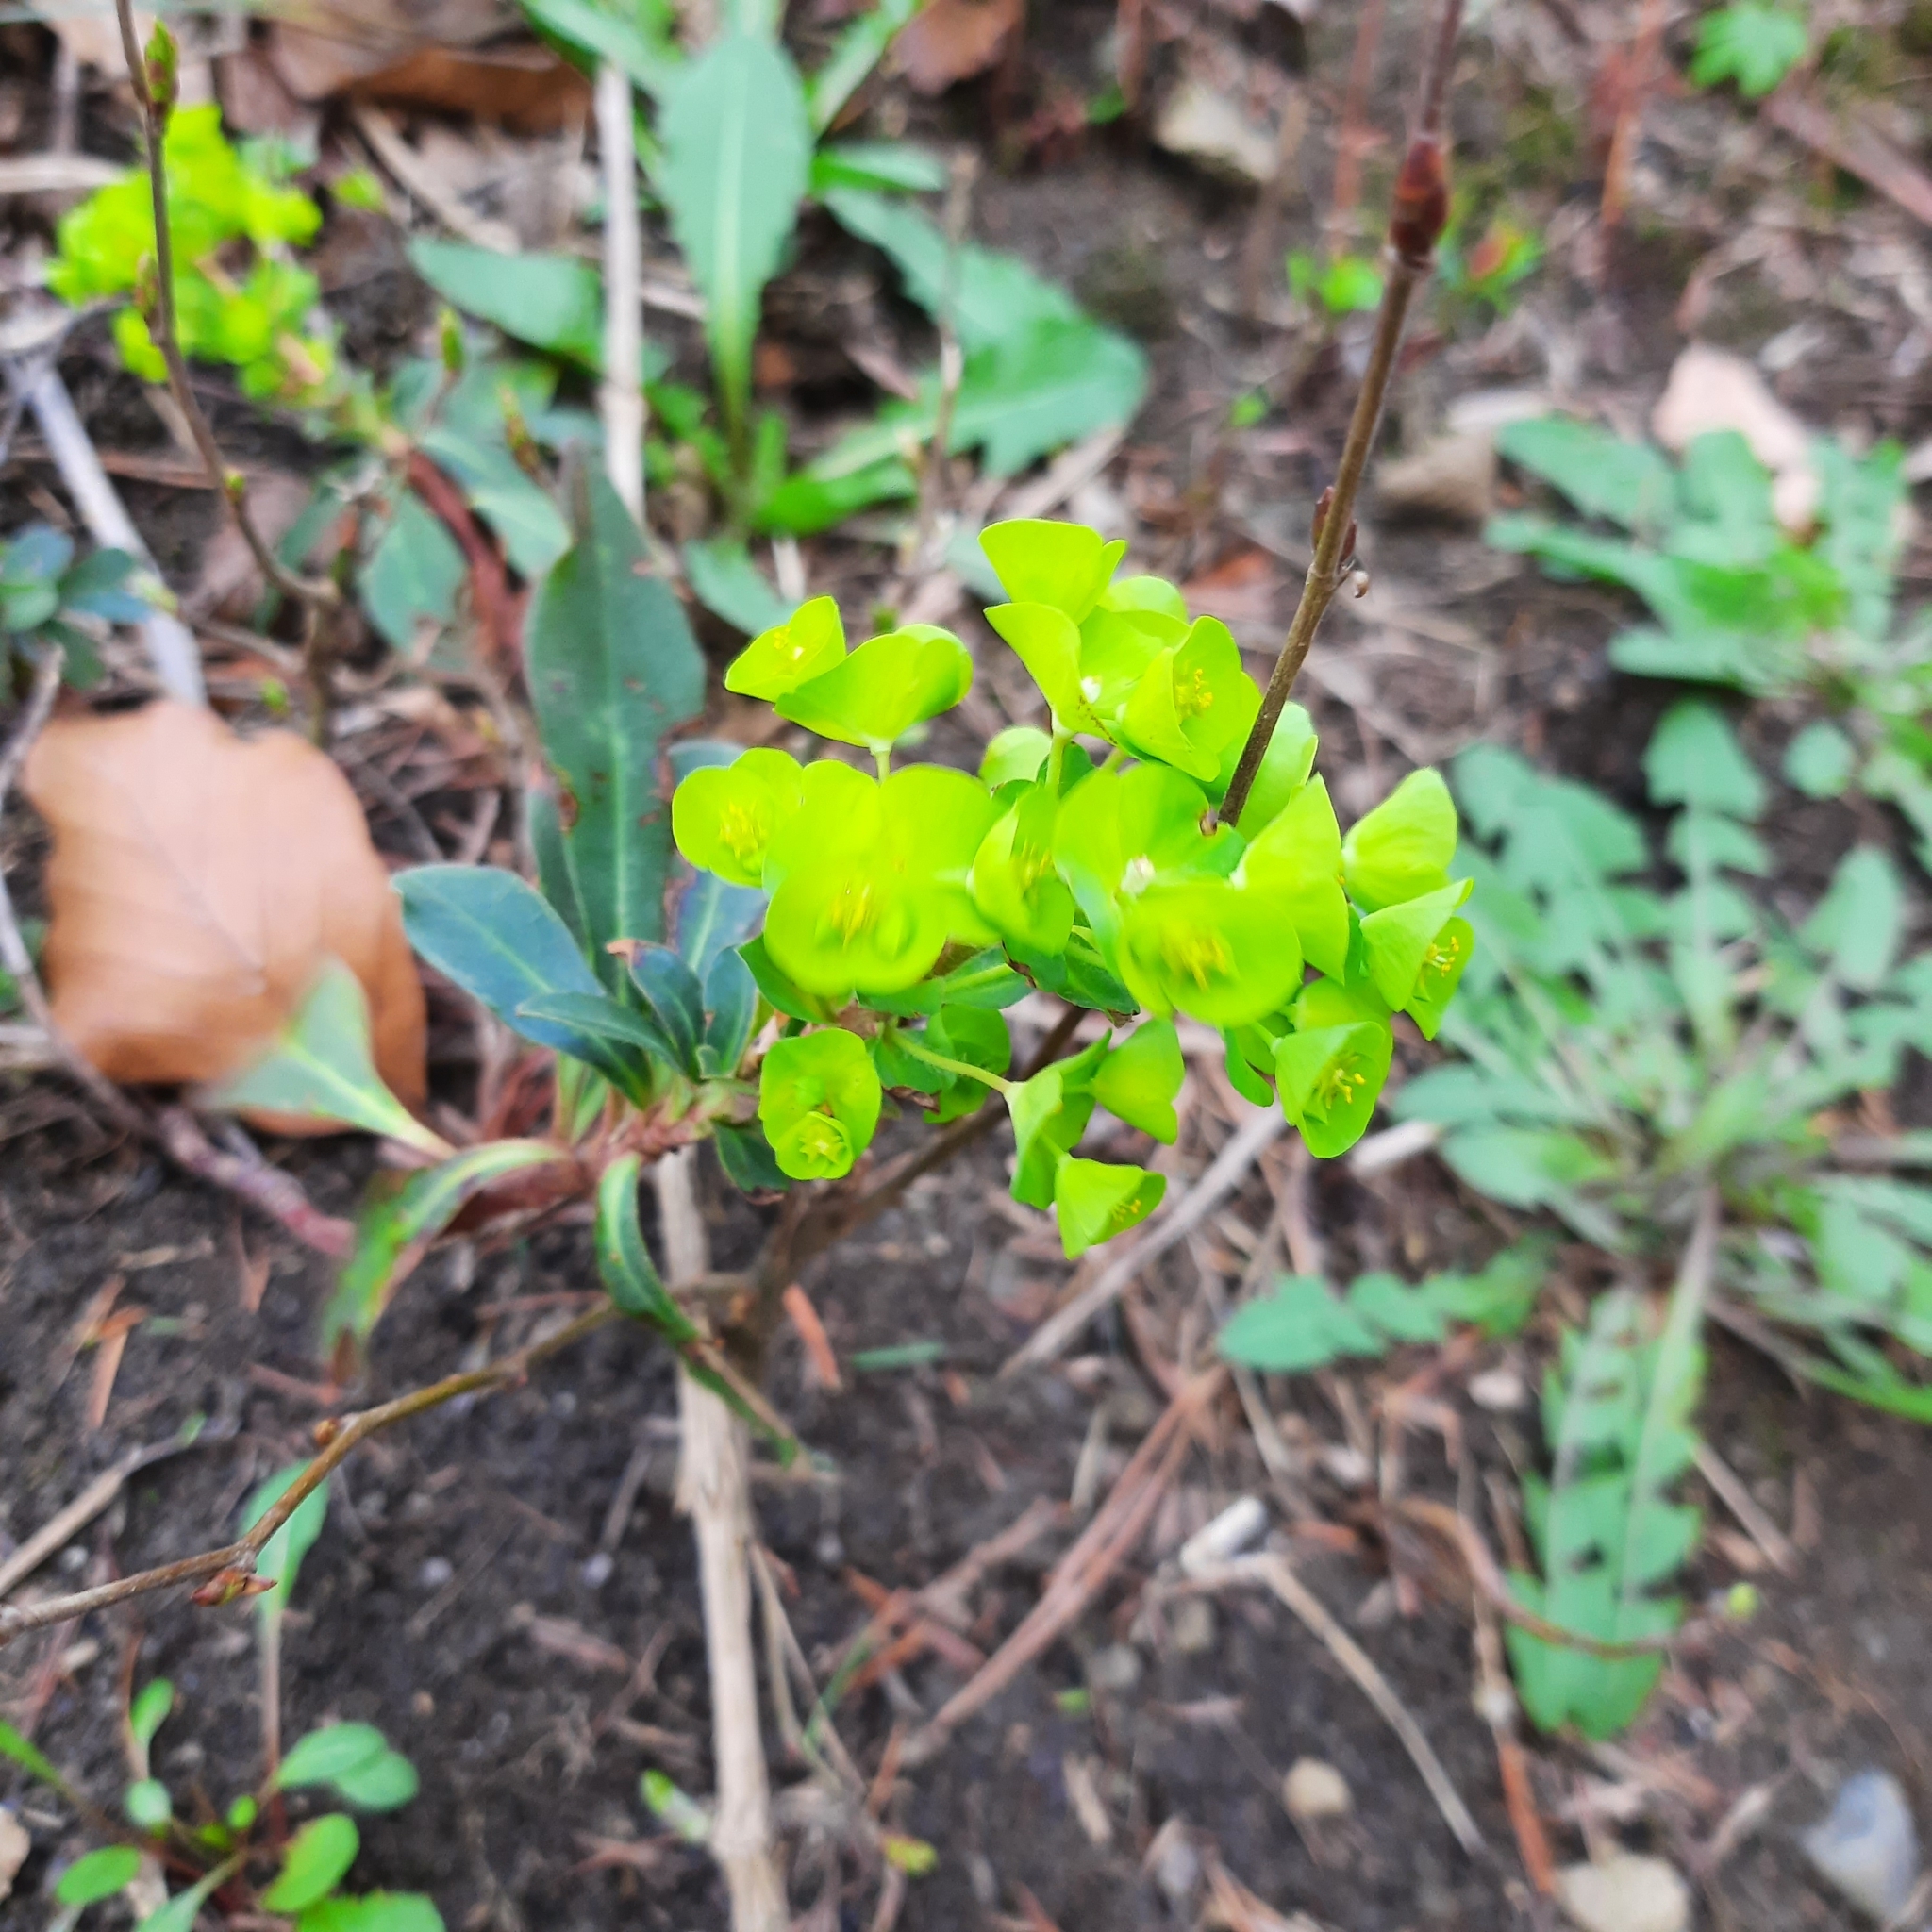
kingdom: Plantae
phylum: Tracheophyta
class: Magnoliopsida
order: Malpighiales
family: Euphorbiaceae
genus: Euphorbia
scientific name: Euphorbia amygdaloides
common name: Wood spurge
